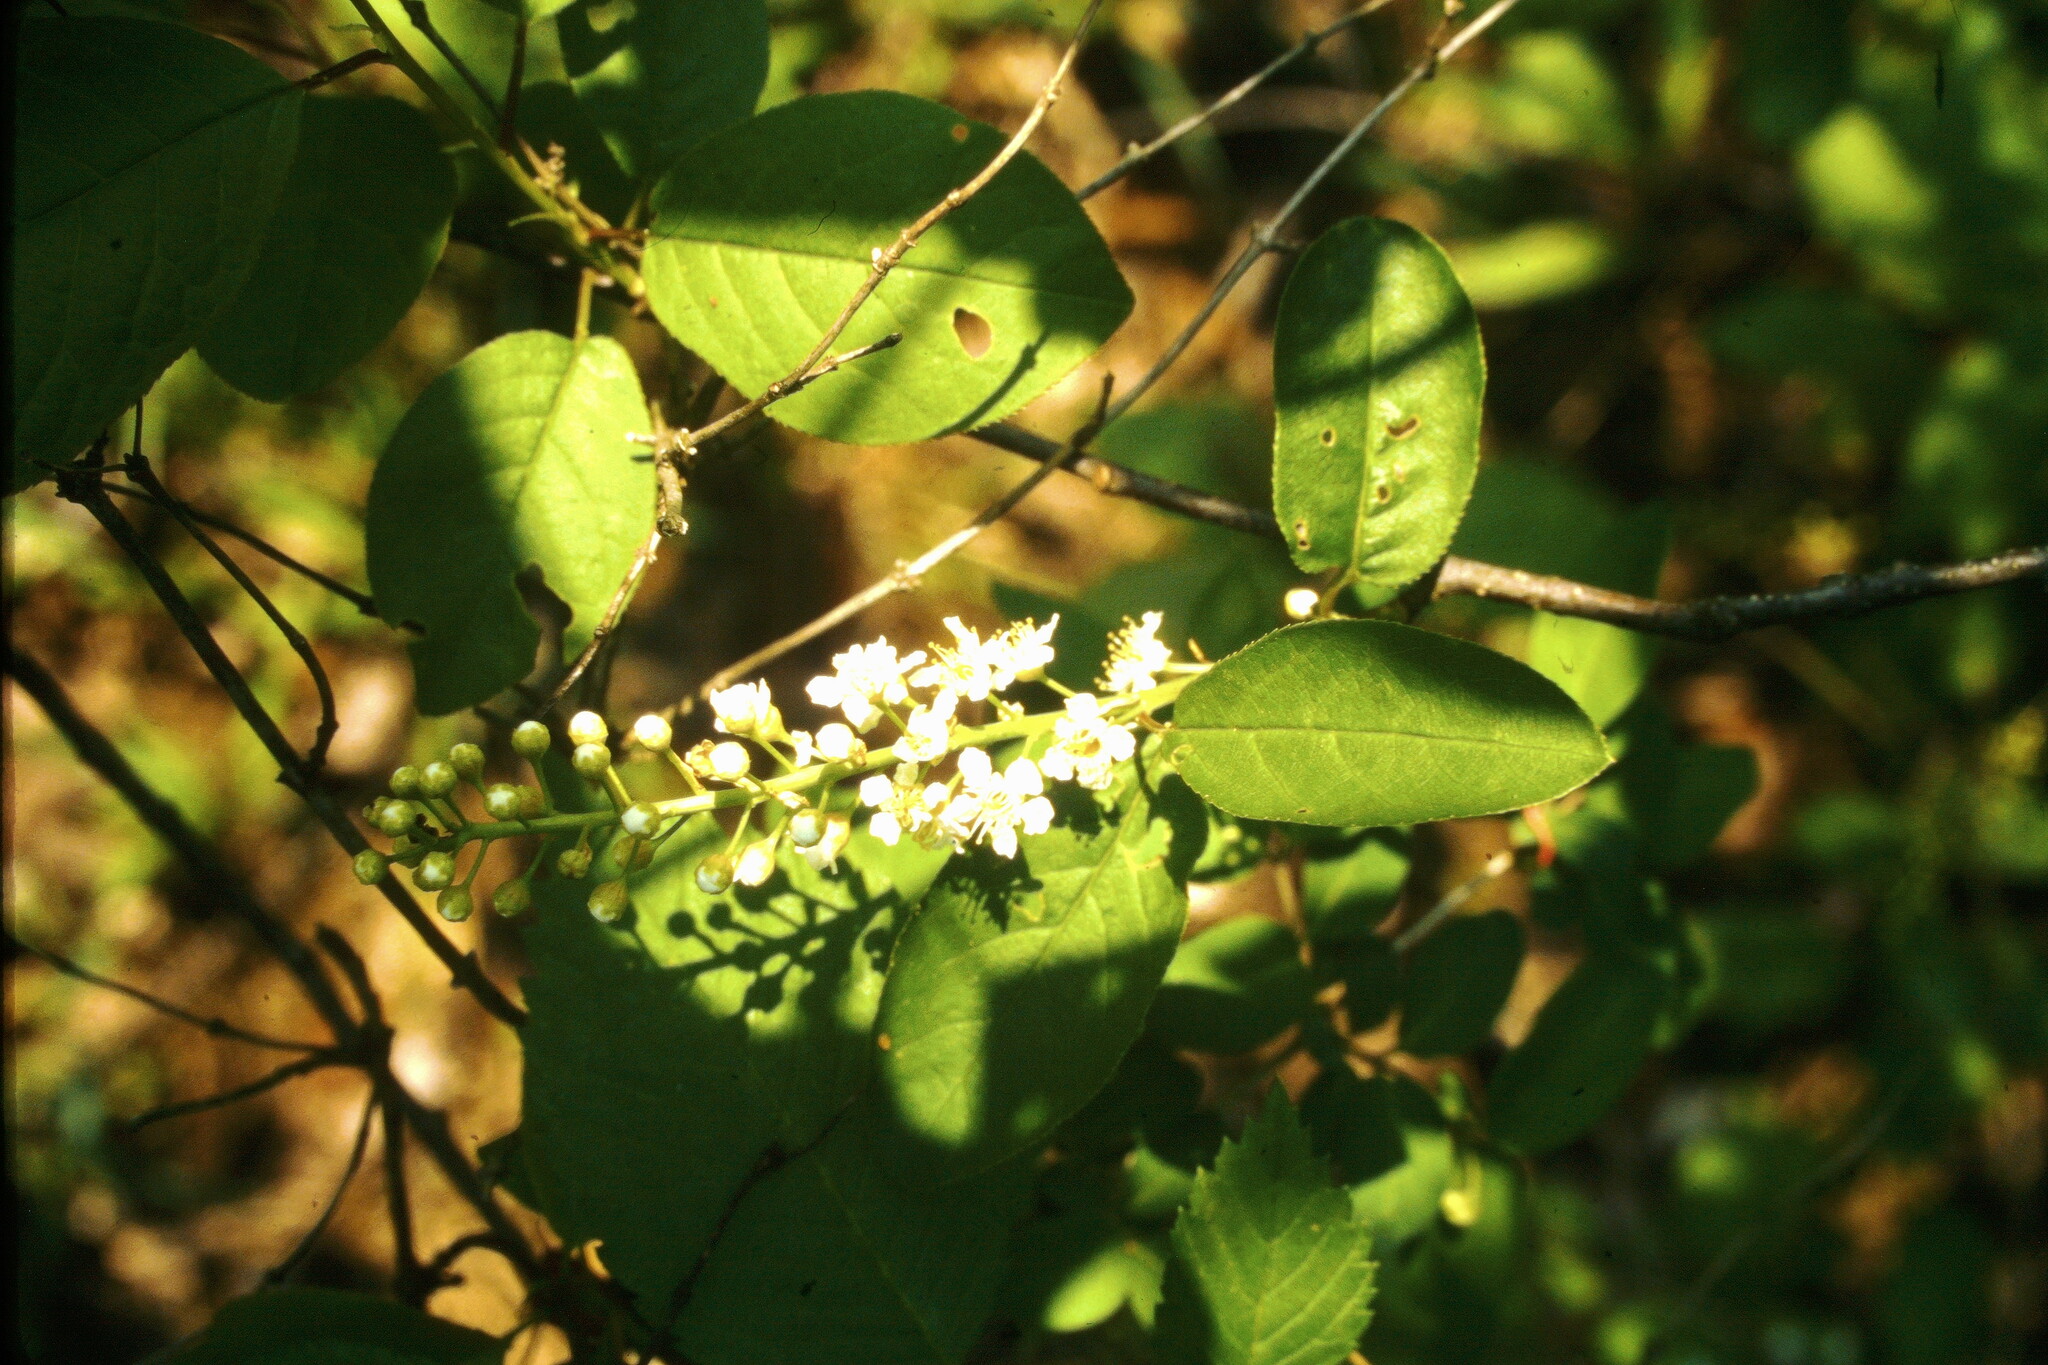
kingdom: Plantae
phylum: Tracheophyta
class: Magnoliopsida
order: Rosales
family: Rosaceae
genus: Prunus
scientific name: Prunus virginiana
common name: Chokecherry
